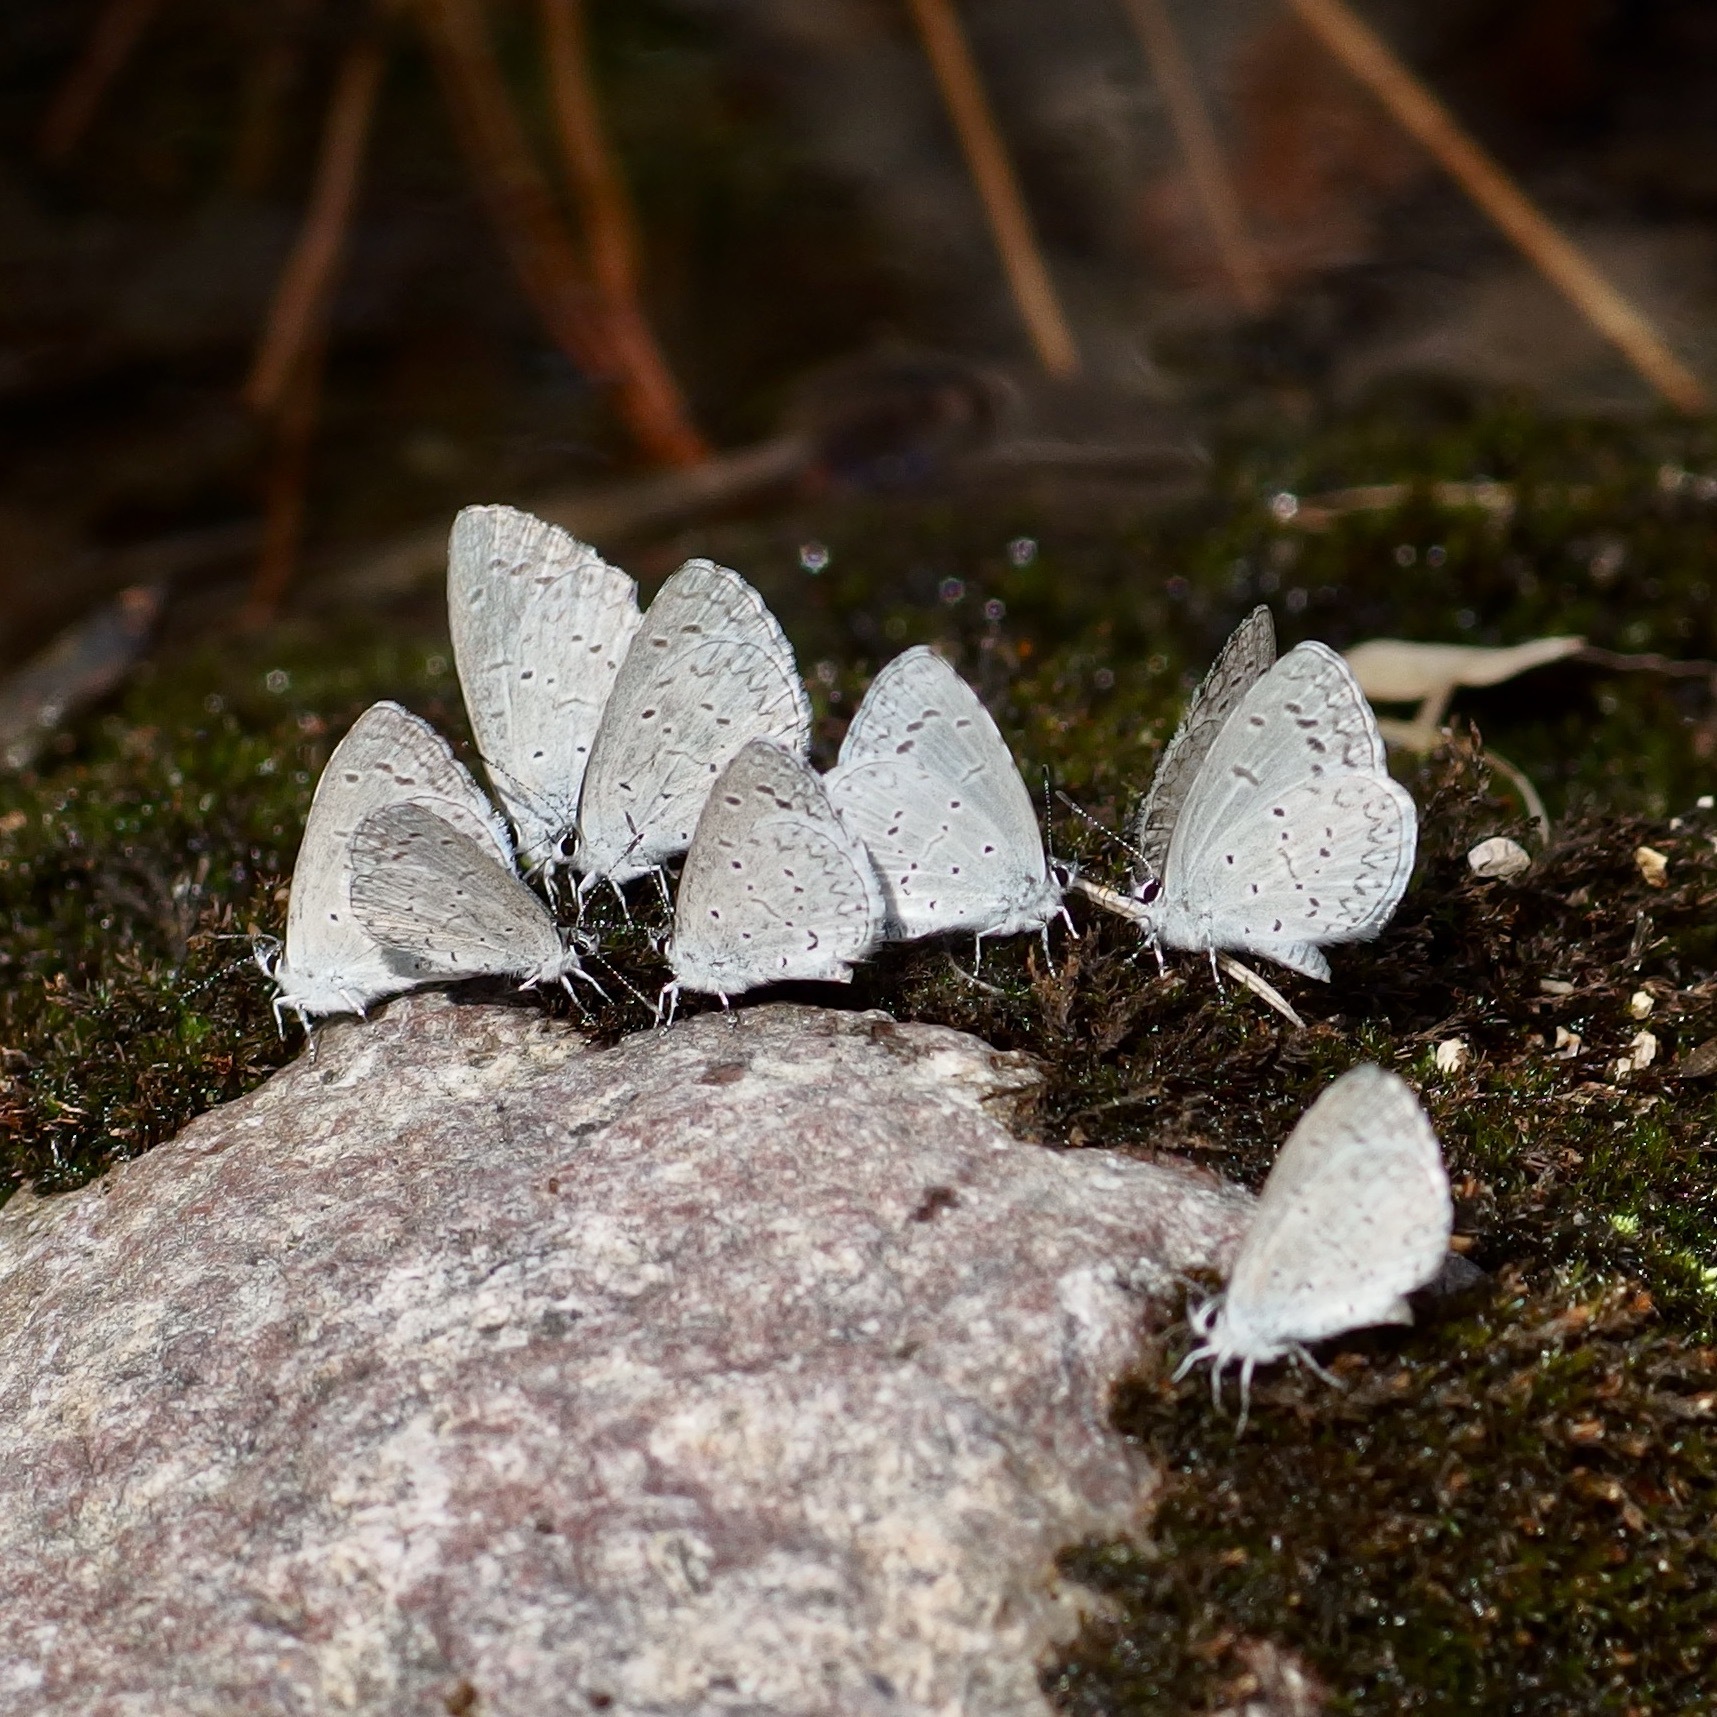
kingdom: Animalia
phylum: Arthropoda
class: Insecta
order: Lepidoptera
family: Lycaenidae
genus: Celastrina
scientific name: Celastrina argiolus
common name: Holly blue
